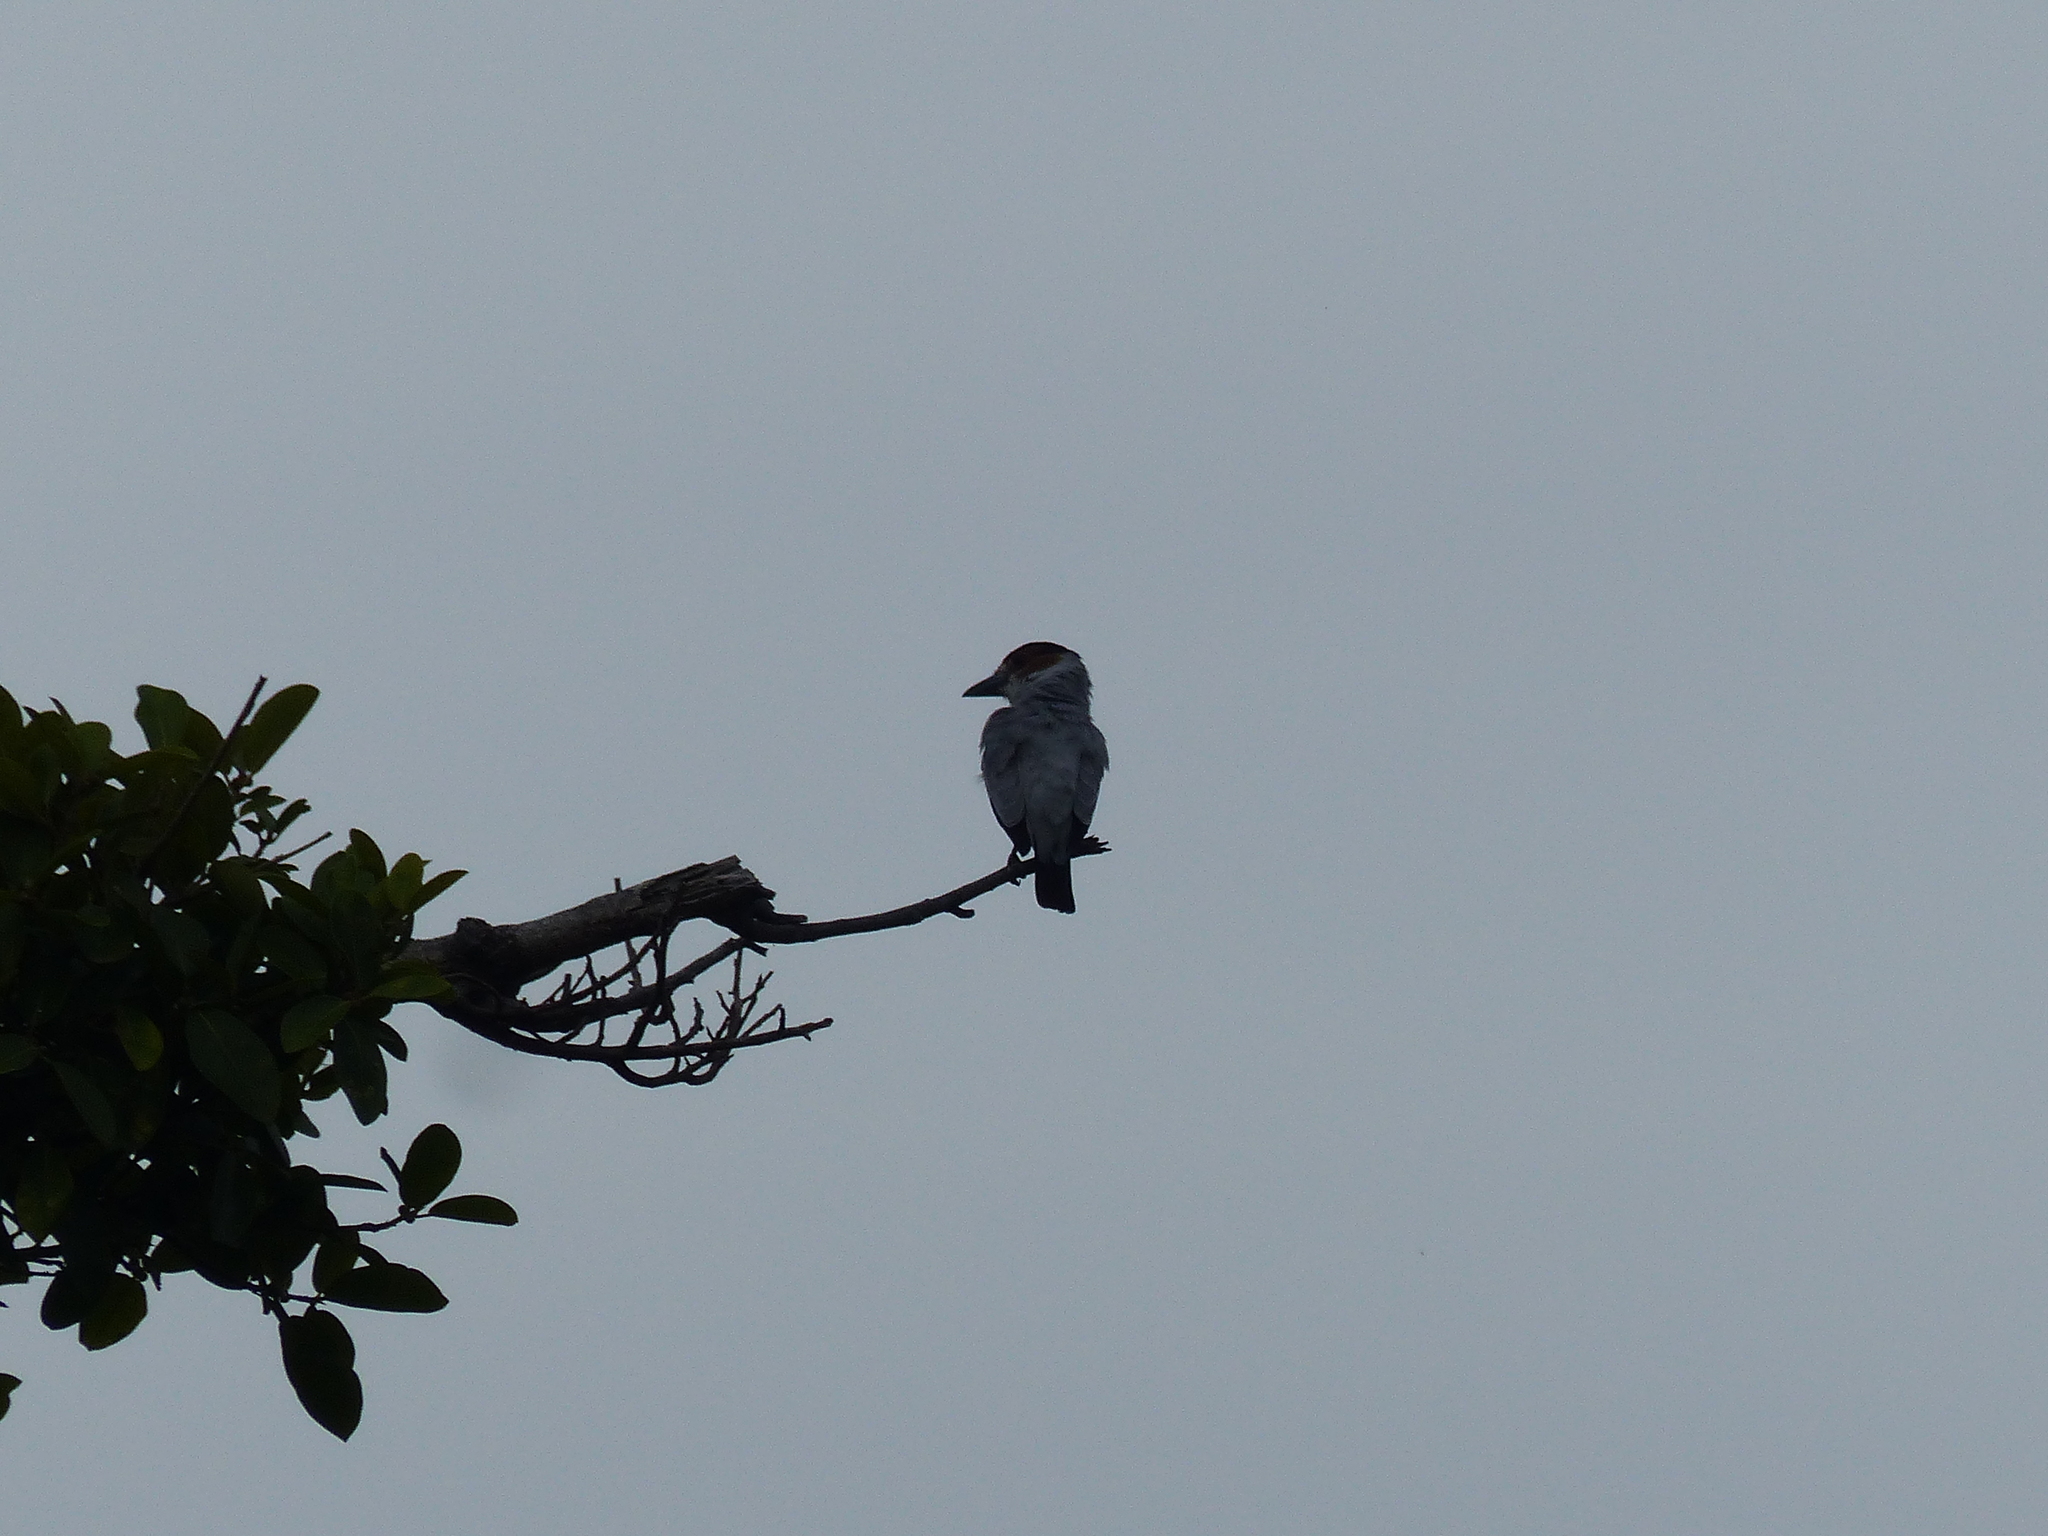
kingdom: Animalia
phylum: Chordata
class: Aves
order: Passeriformes
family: Cotingidae
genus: Tityra
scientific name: Tityra inquisitor
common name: Black-crowned tityra
